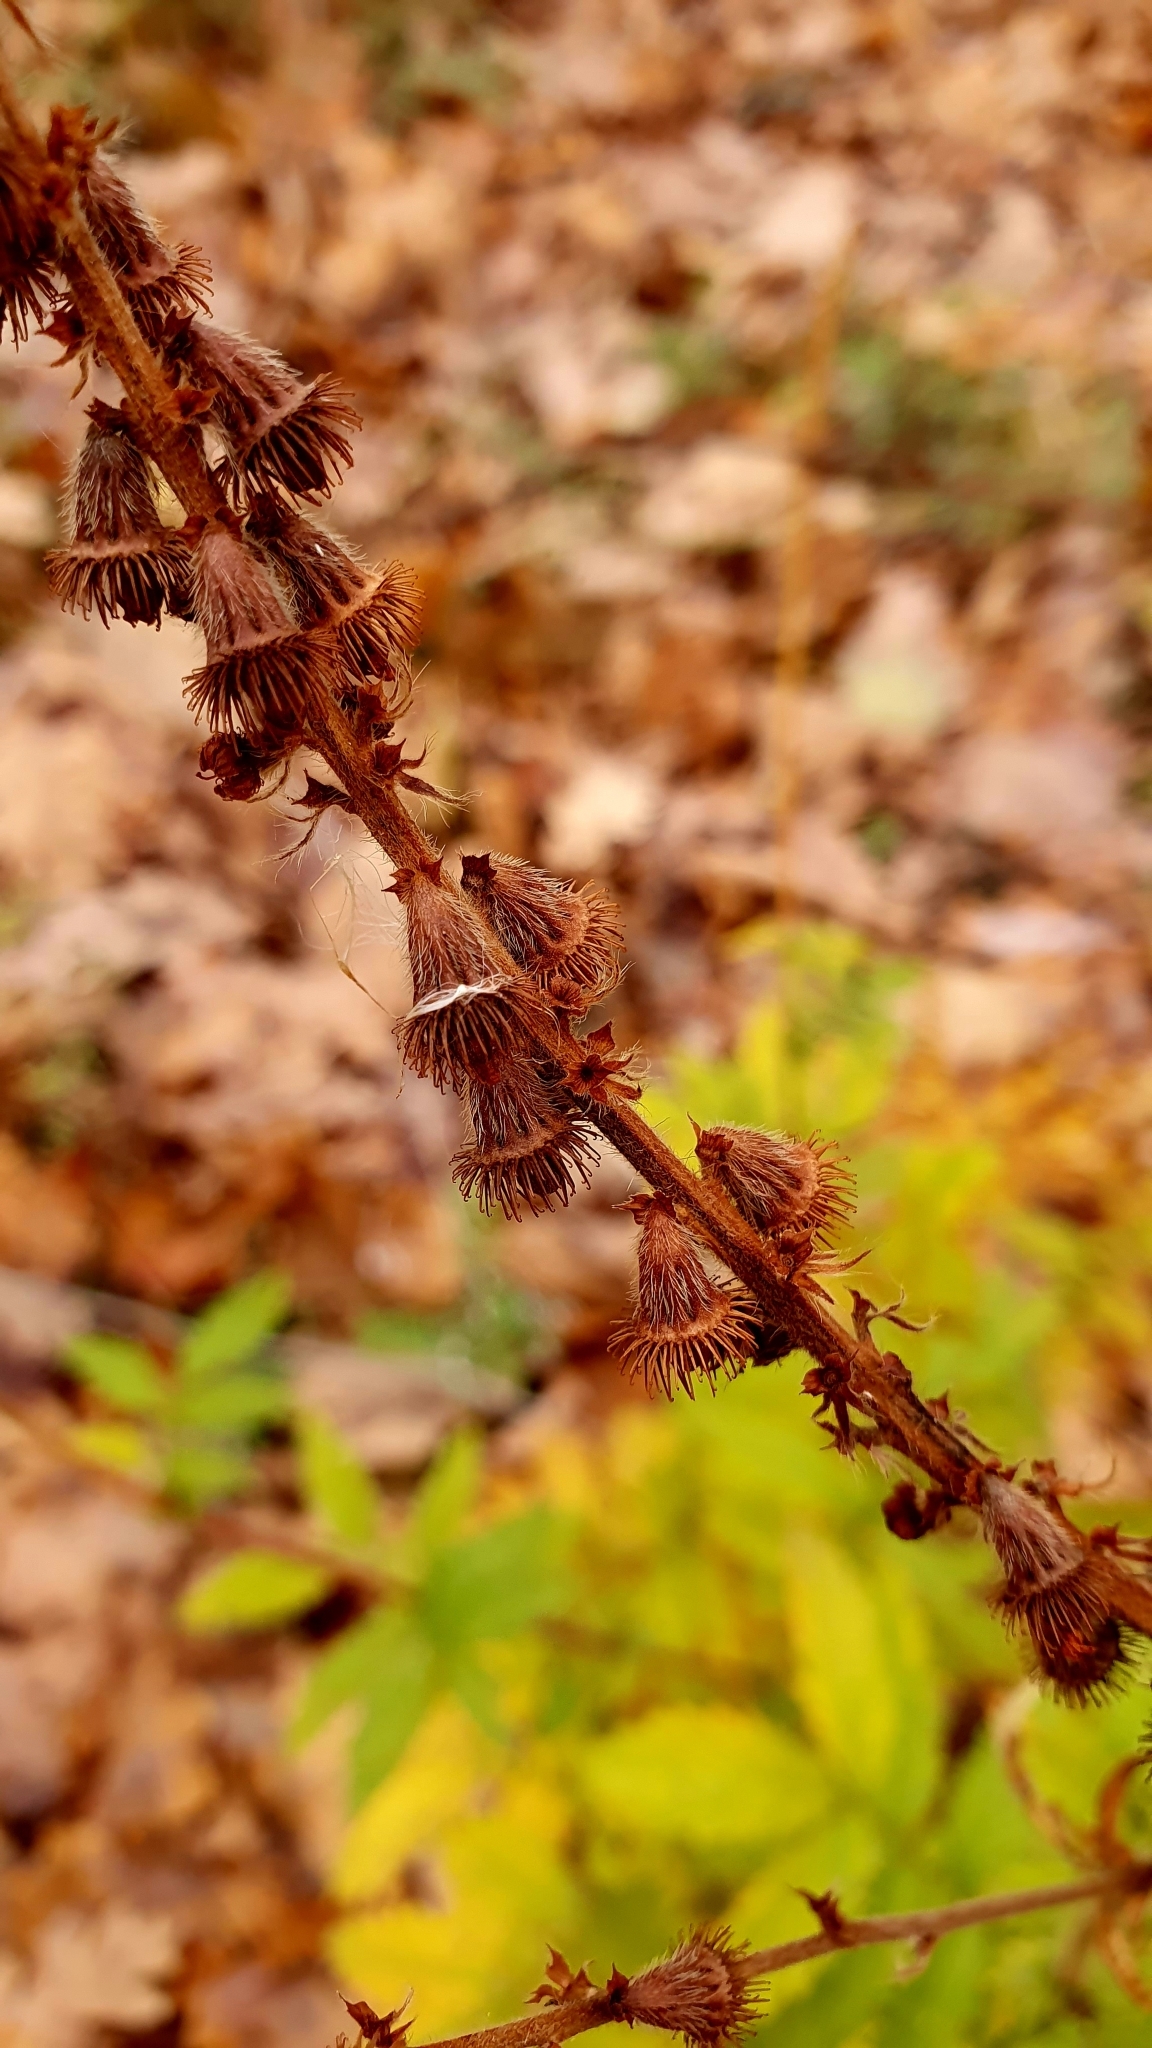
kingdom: Plantae
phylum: Tracheophyta
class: Magnoliopsida
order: Rosales
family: Rosaceae
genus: Agrimonia
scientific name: Agrimonia eupatoria
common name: Agrimony
